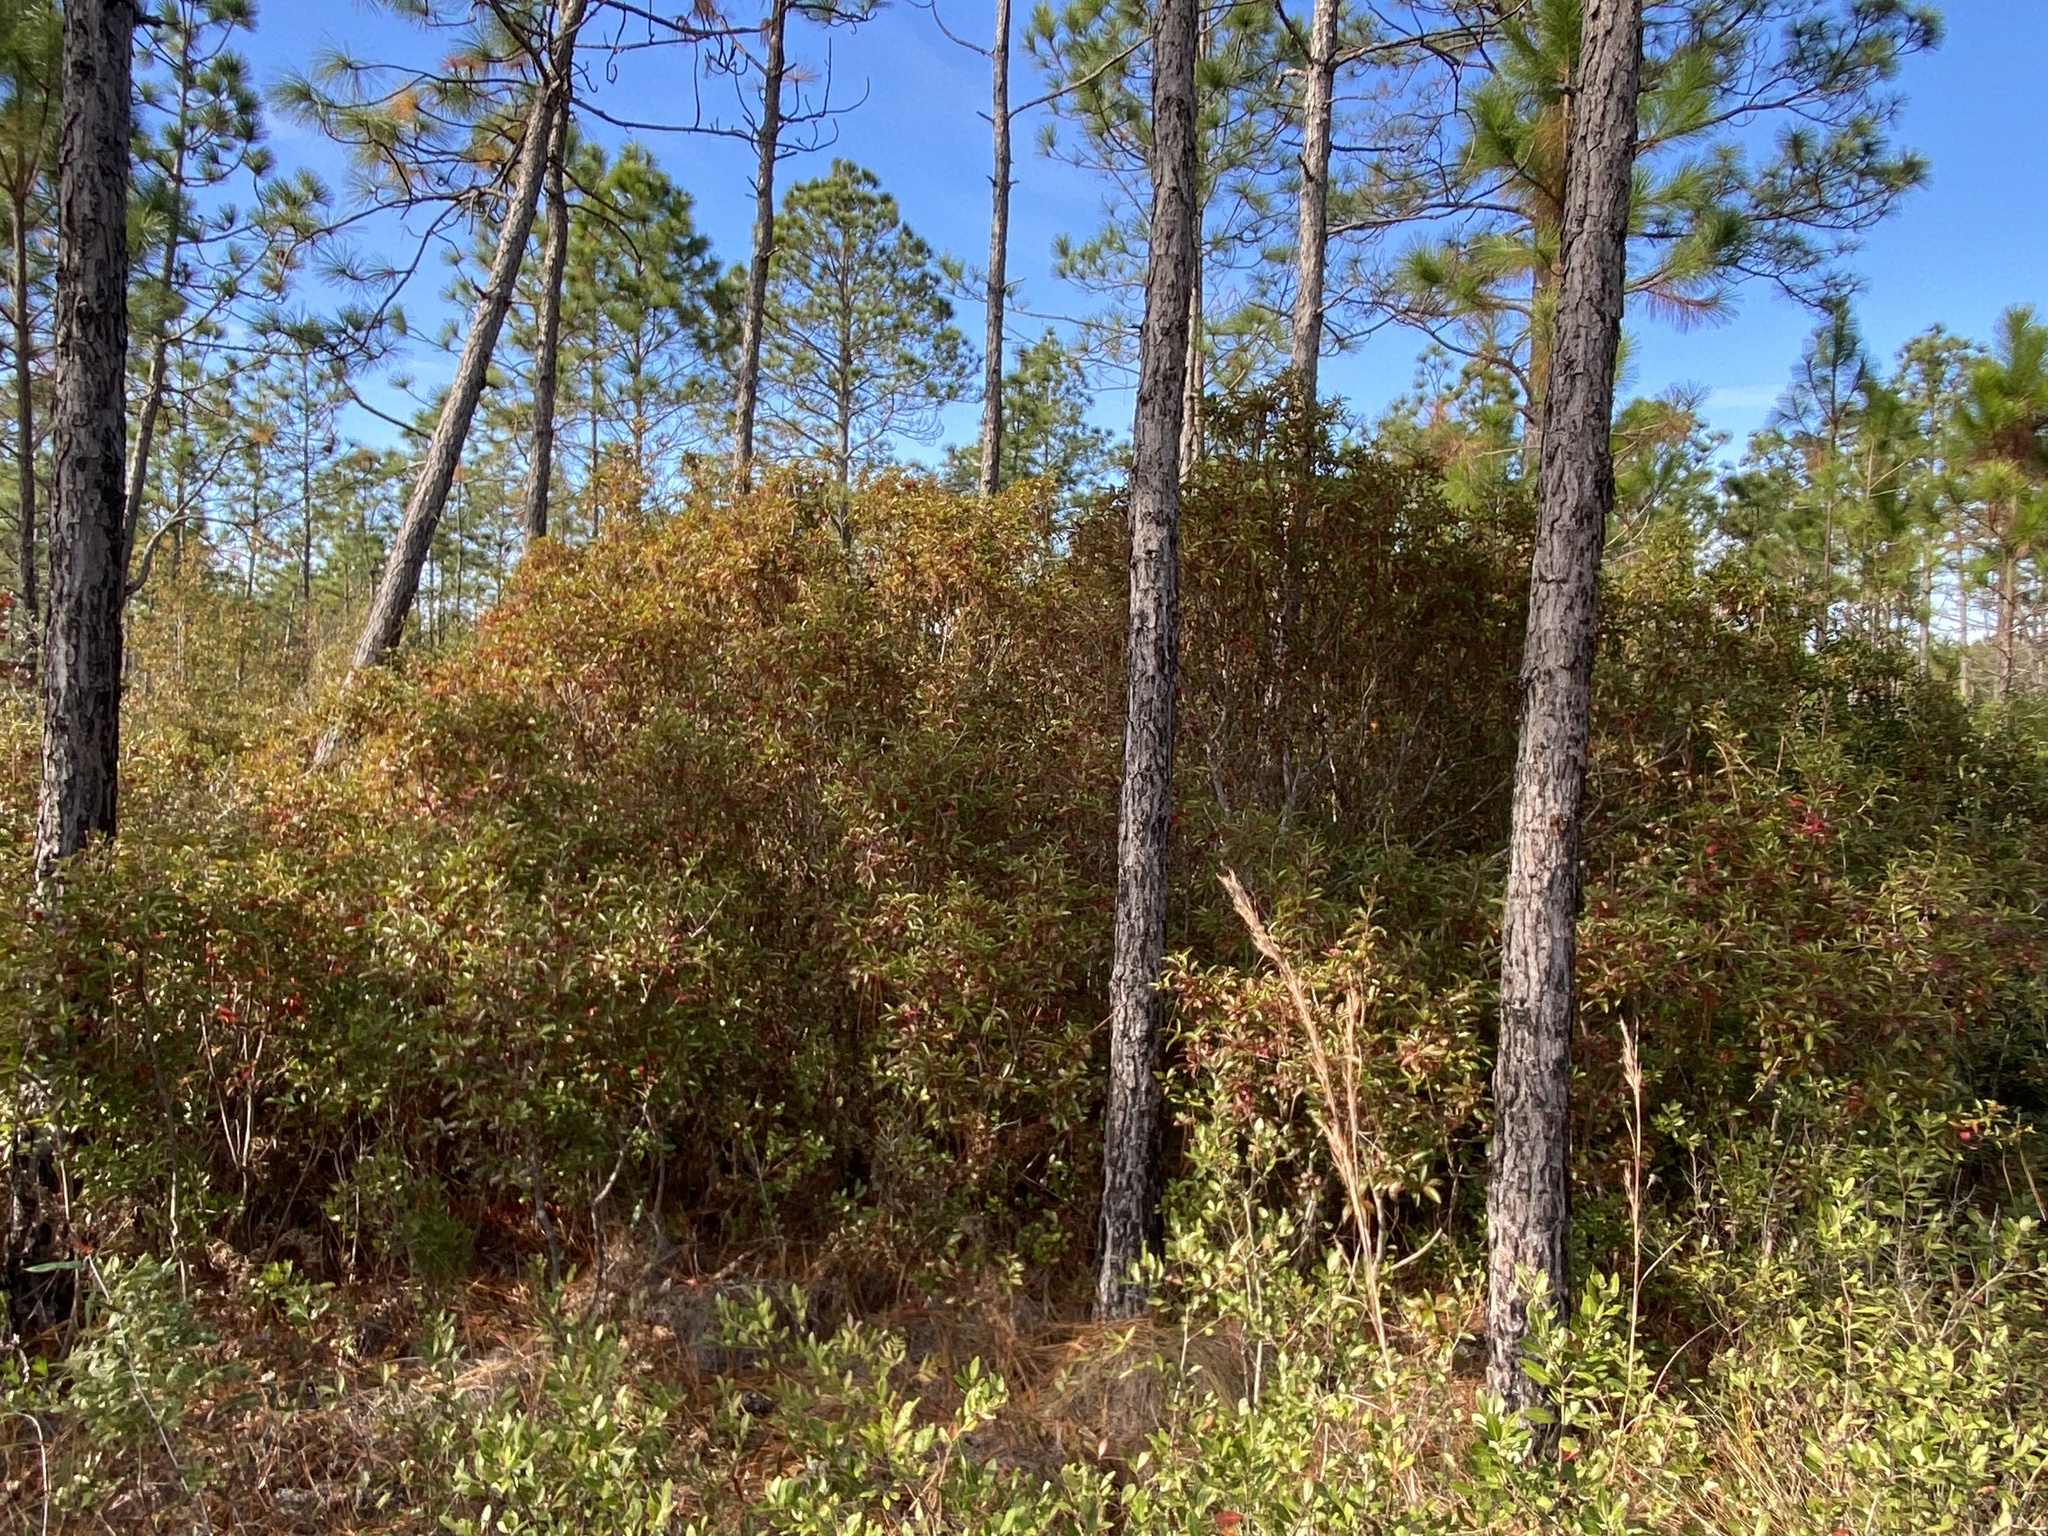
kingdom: Plantae
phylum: Tracheophyta
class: Magnoliopsida
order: Ericales
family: Cyrillaceae
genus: Cyrilla
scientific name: Cyrilla racemiflora
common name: Black titi
